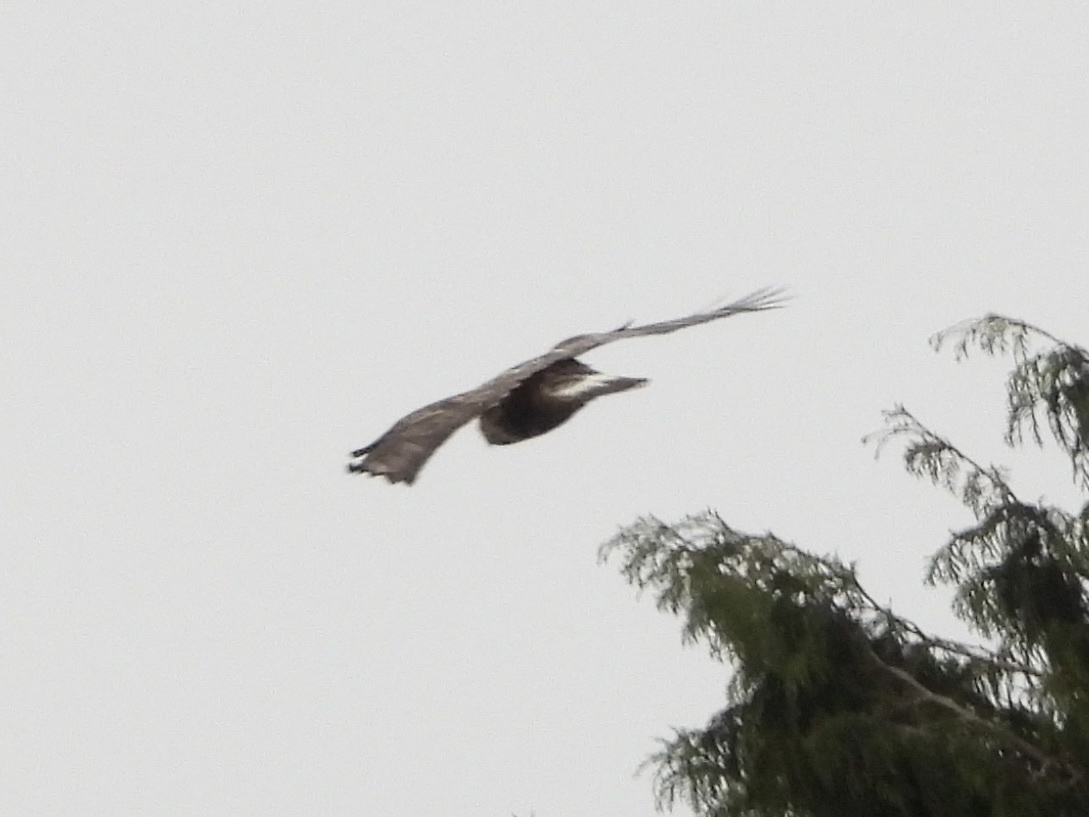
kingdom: Animalia
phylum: Chordata
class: Aves
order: Accipitriformes
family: Accipitridae
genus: Buteo
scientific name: Buteo lagopus
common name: Rough-legged buzzard
